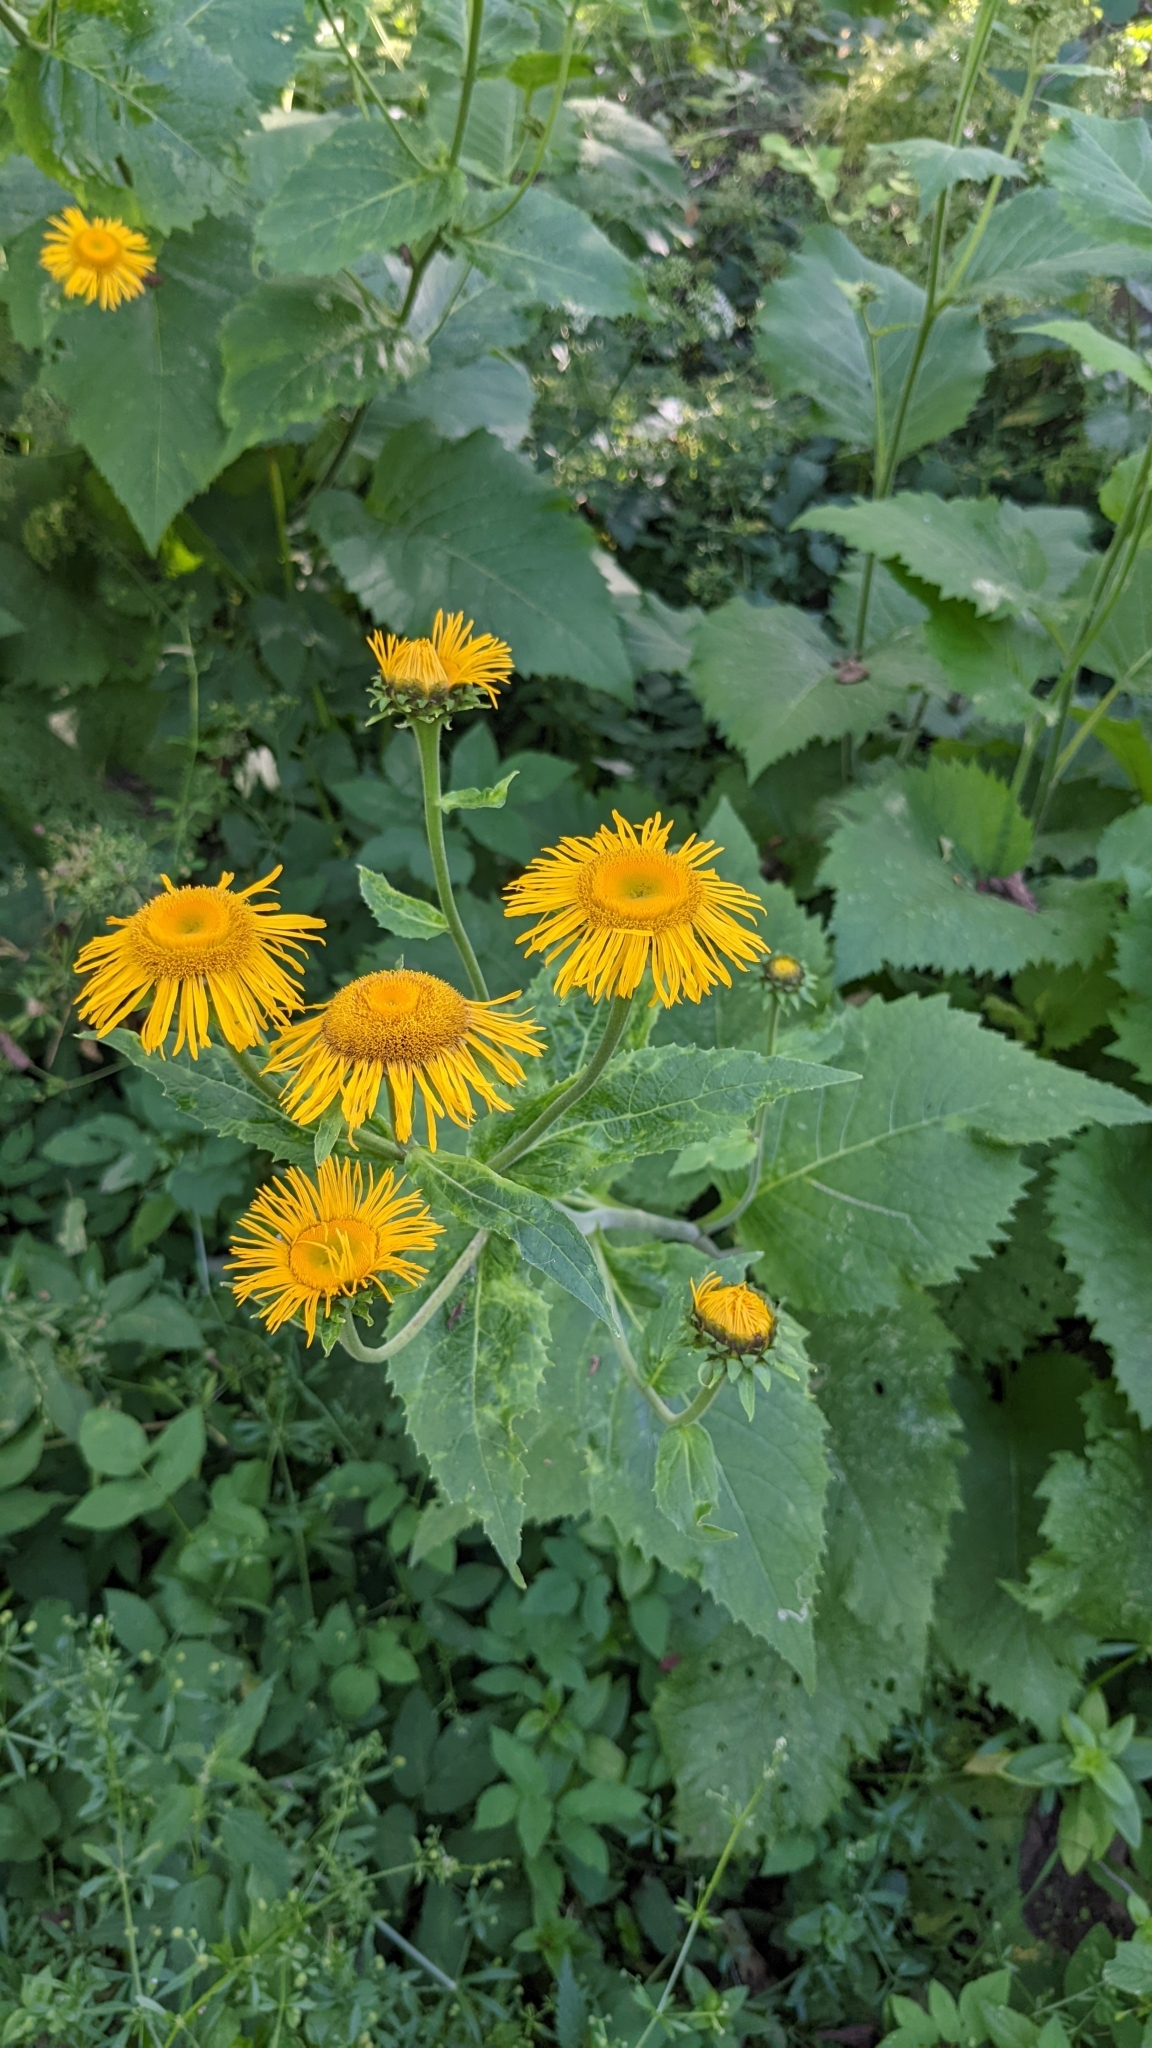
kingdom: Plantae
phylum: Tracheophyta
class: Magnoliopsida
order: Asterales
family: Asteraceae
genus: Telekia
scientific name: Telekia speciosa
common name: Yellow oxeye
